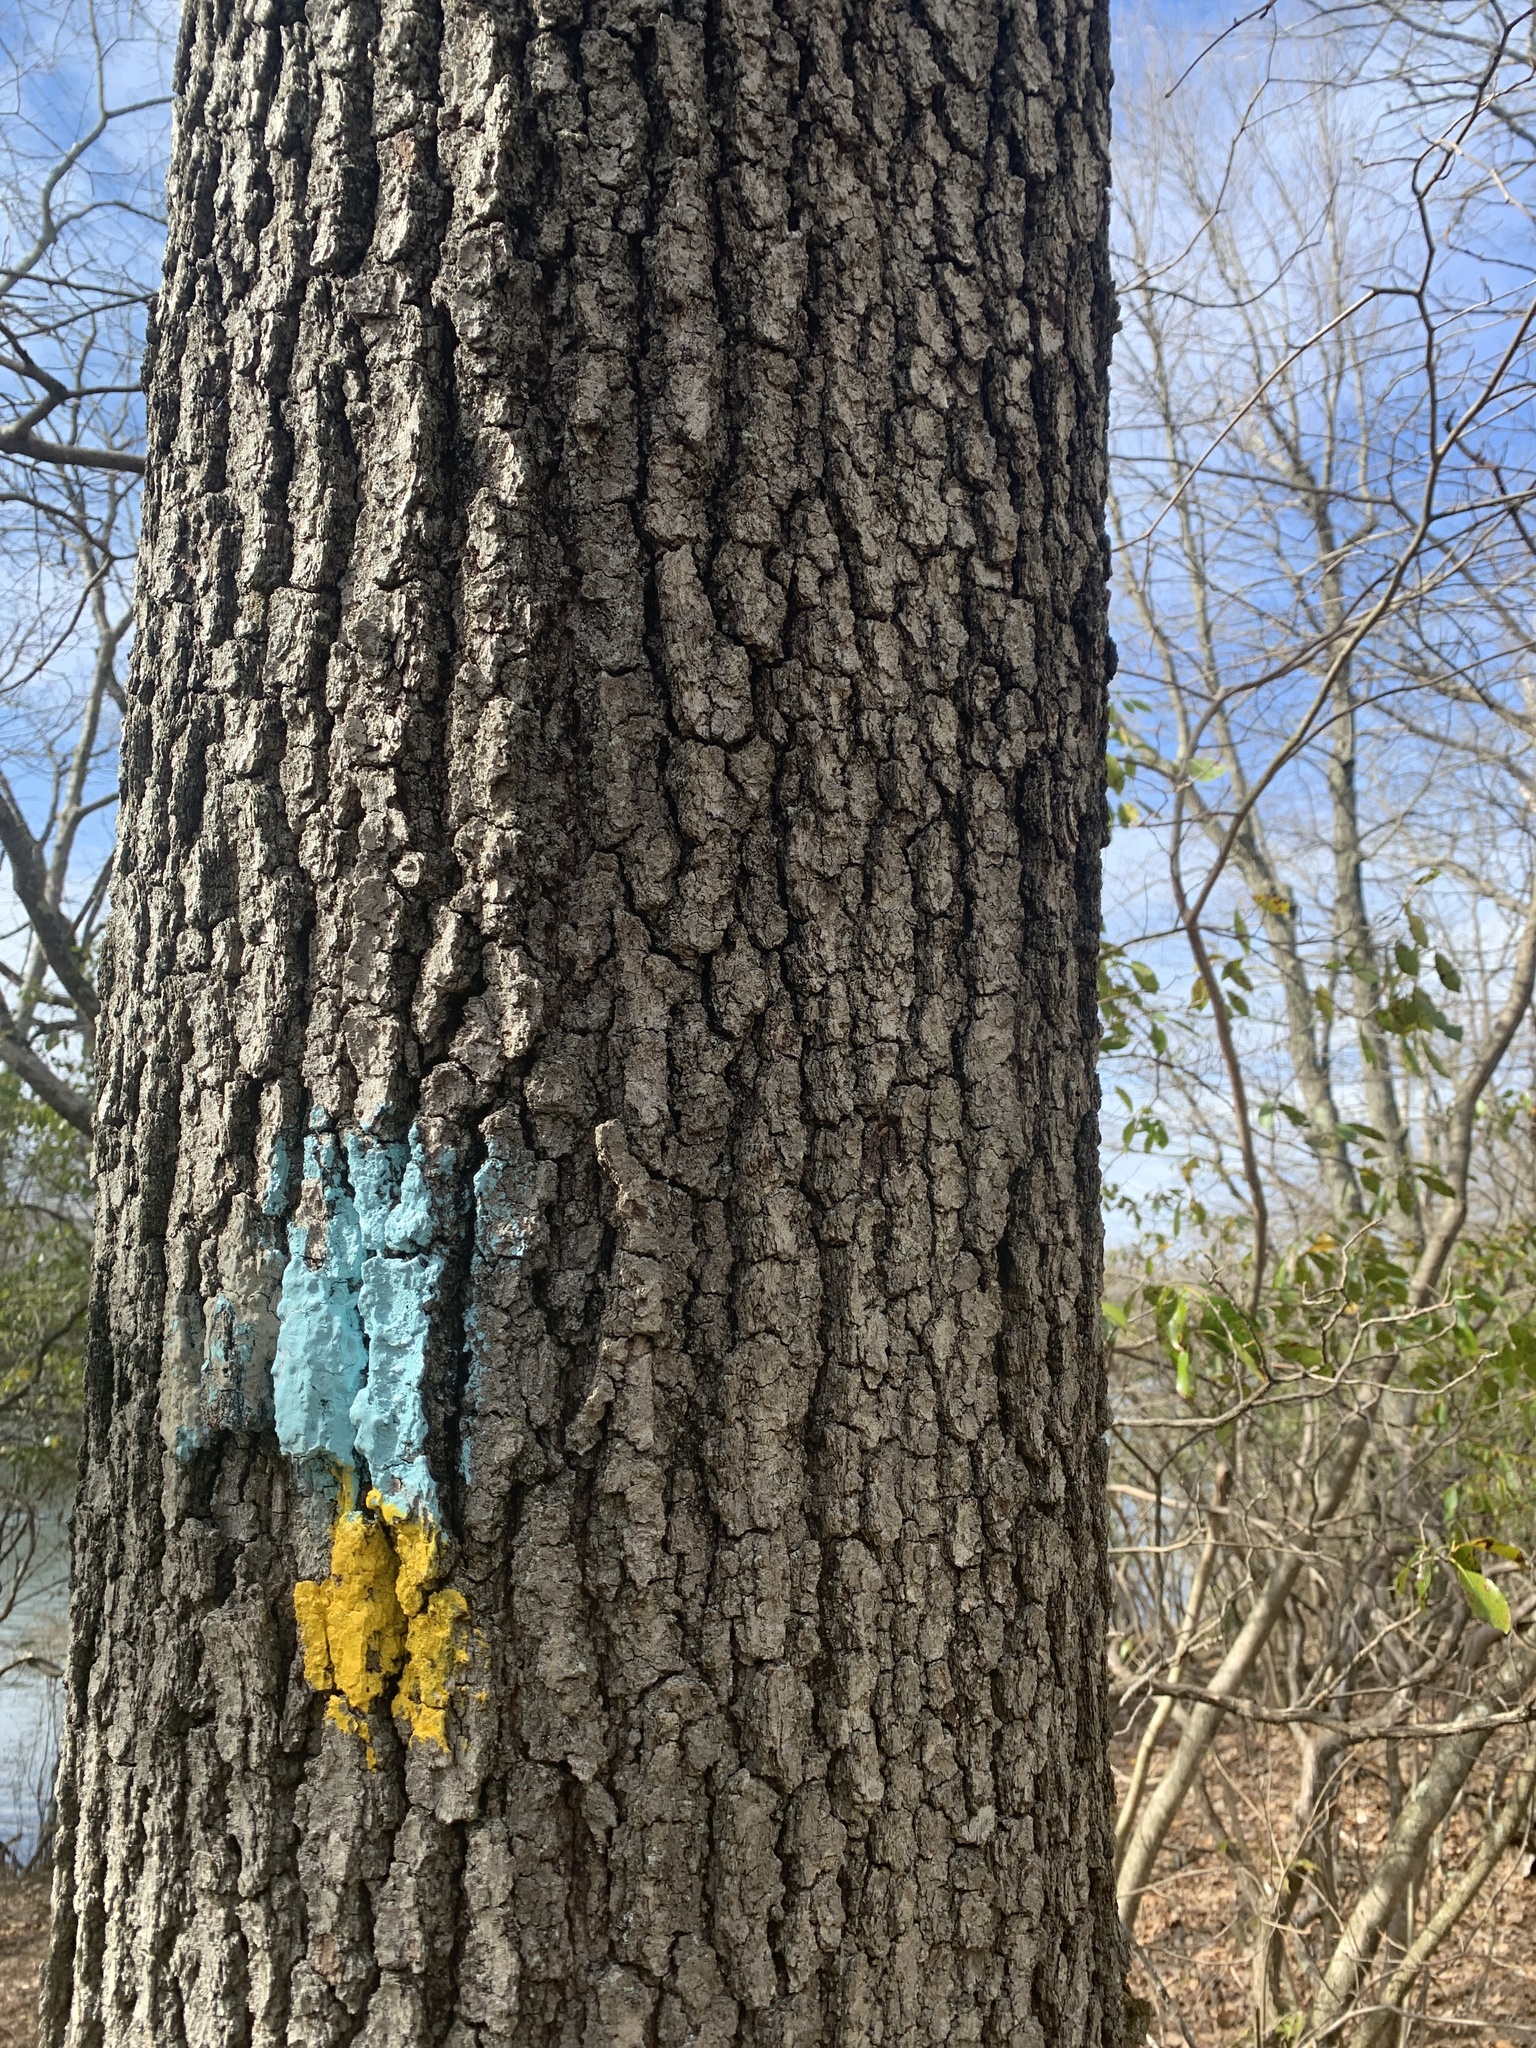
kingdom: Plantae
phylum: Tracheophyta
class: Magnoliopsida
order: Fagales
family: Fagaceae
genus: Quercus
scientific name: Quercus velutina
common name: Black oak
